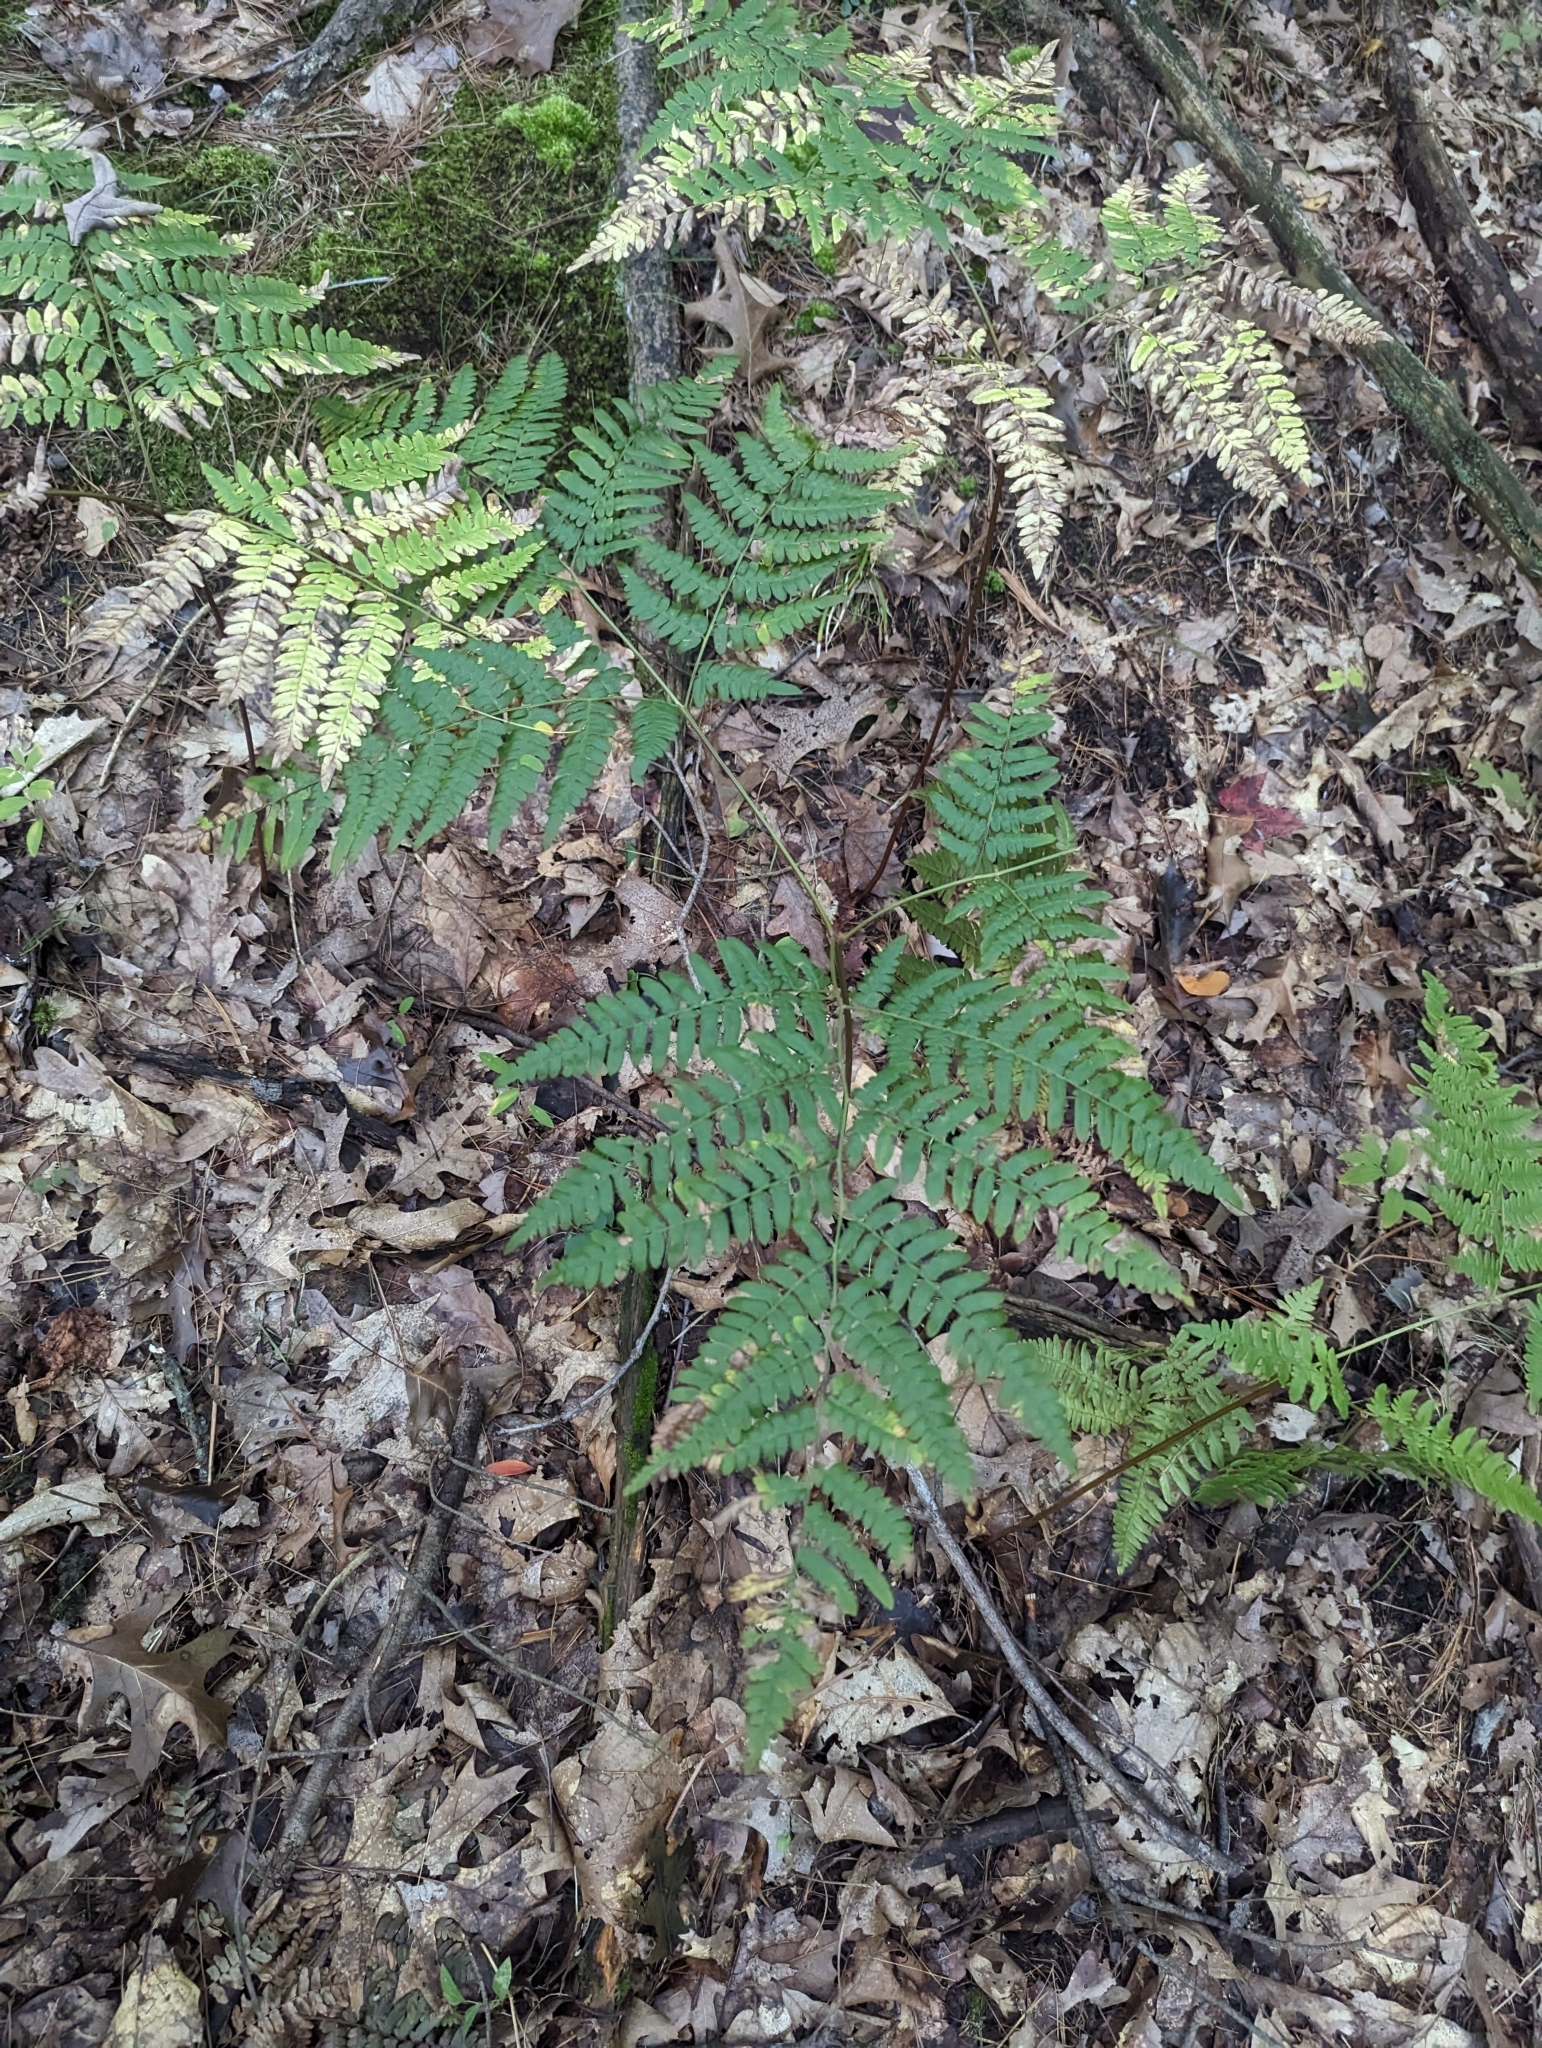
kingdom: Plantae
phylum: Tracheophyta
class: Polypodiopsida
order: Polypodiales
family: Dennstaedtiaceae
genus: Pteridium
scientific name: Pteridium aquilinum
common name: Bracken
